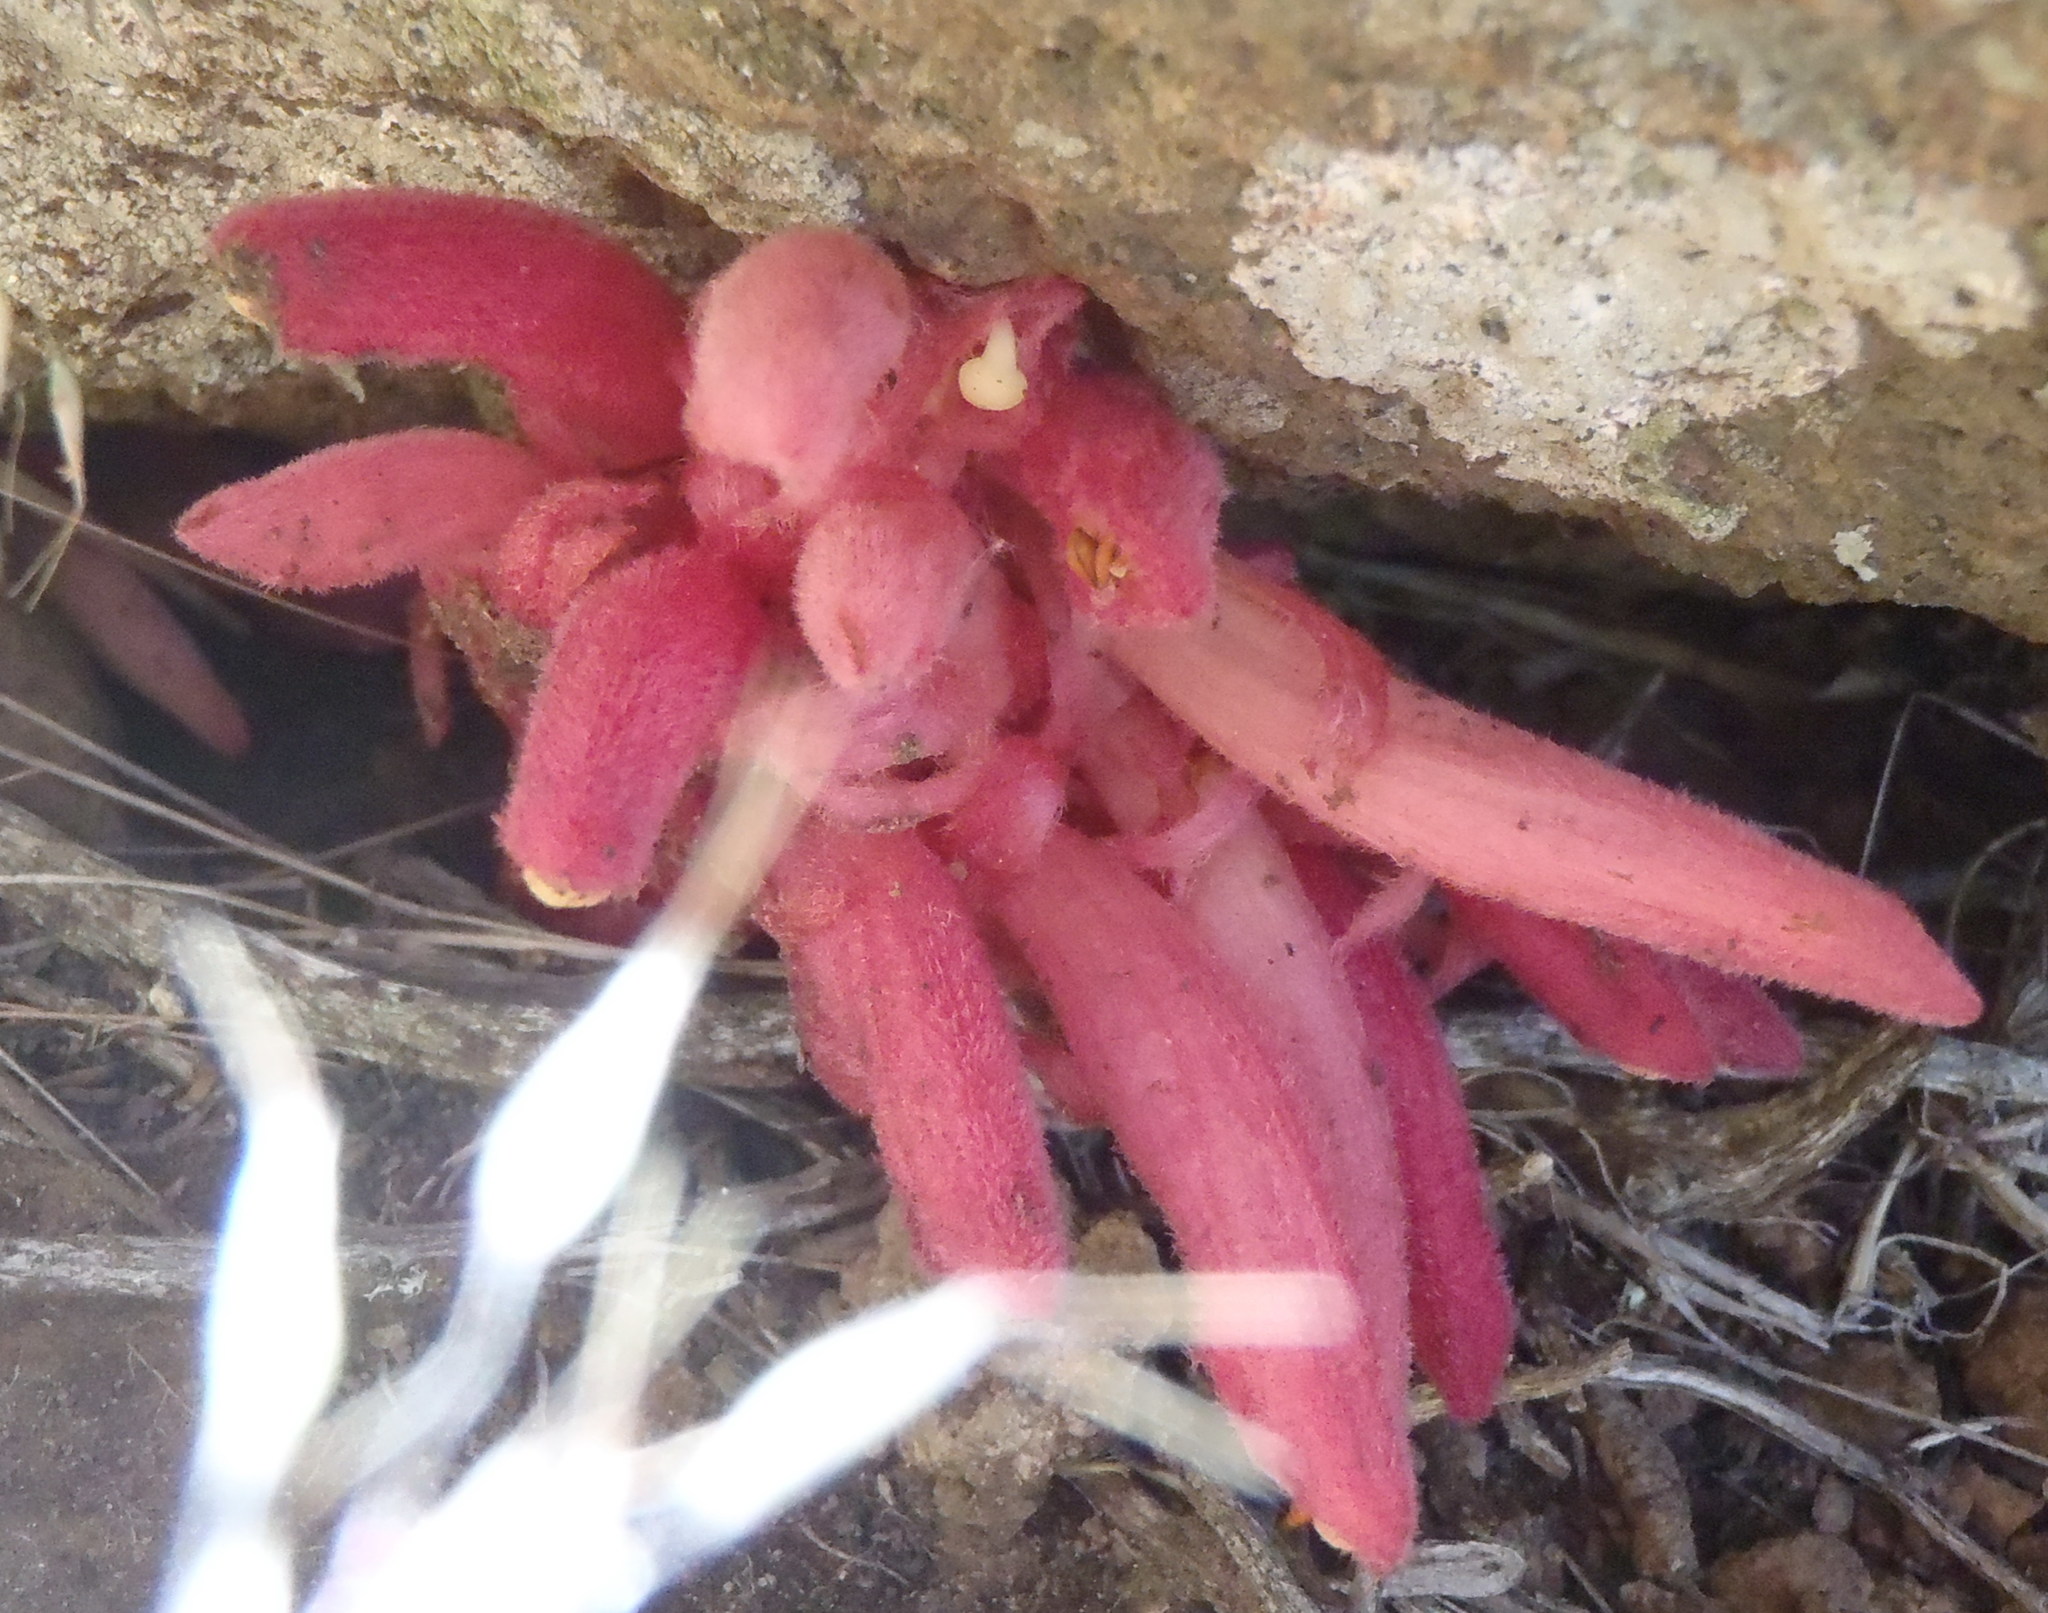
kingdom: Plantae
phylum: Tracheophyta
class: Magnoliopsida
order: Lamiales
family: Orobanchaceae
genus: Hyobanche
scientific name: Hyobanche rubra
